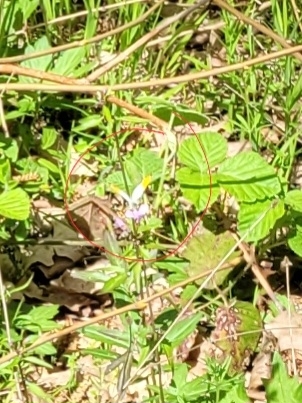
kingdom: Animalia
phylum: Arthropoda
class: Insecta
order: Lepidoptera
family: Pieridae
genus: Anthocharis
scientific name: Anthocharis cardamines
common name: Orange-tip
